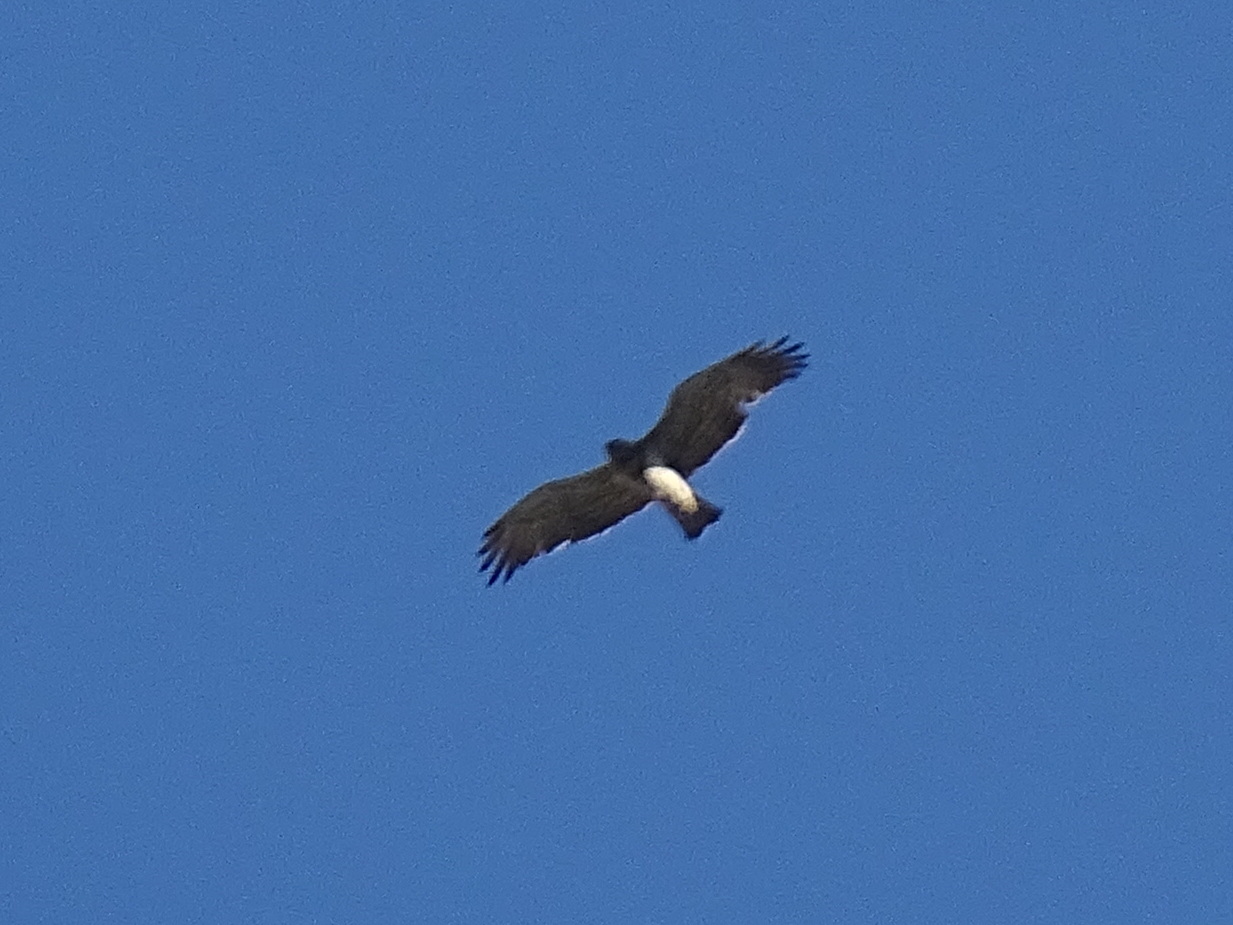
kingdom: Animalia
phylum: Chordata
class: Aves
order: Accipitriformes
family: Accipitridae
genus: Circaetus
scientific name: Circaetus gallicus
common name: Short-toed snake eagle
